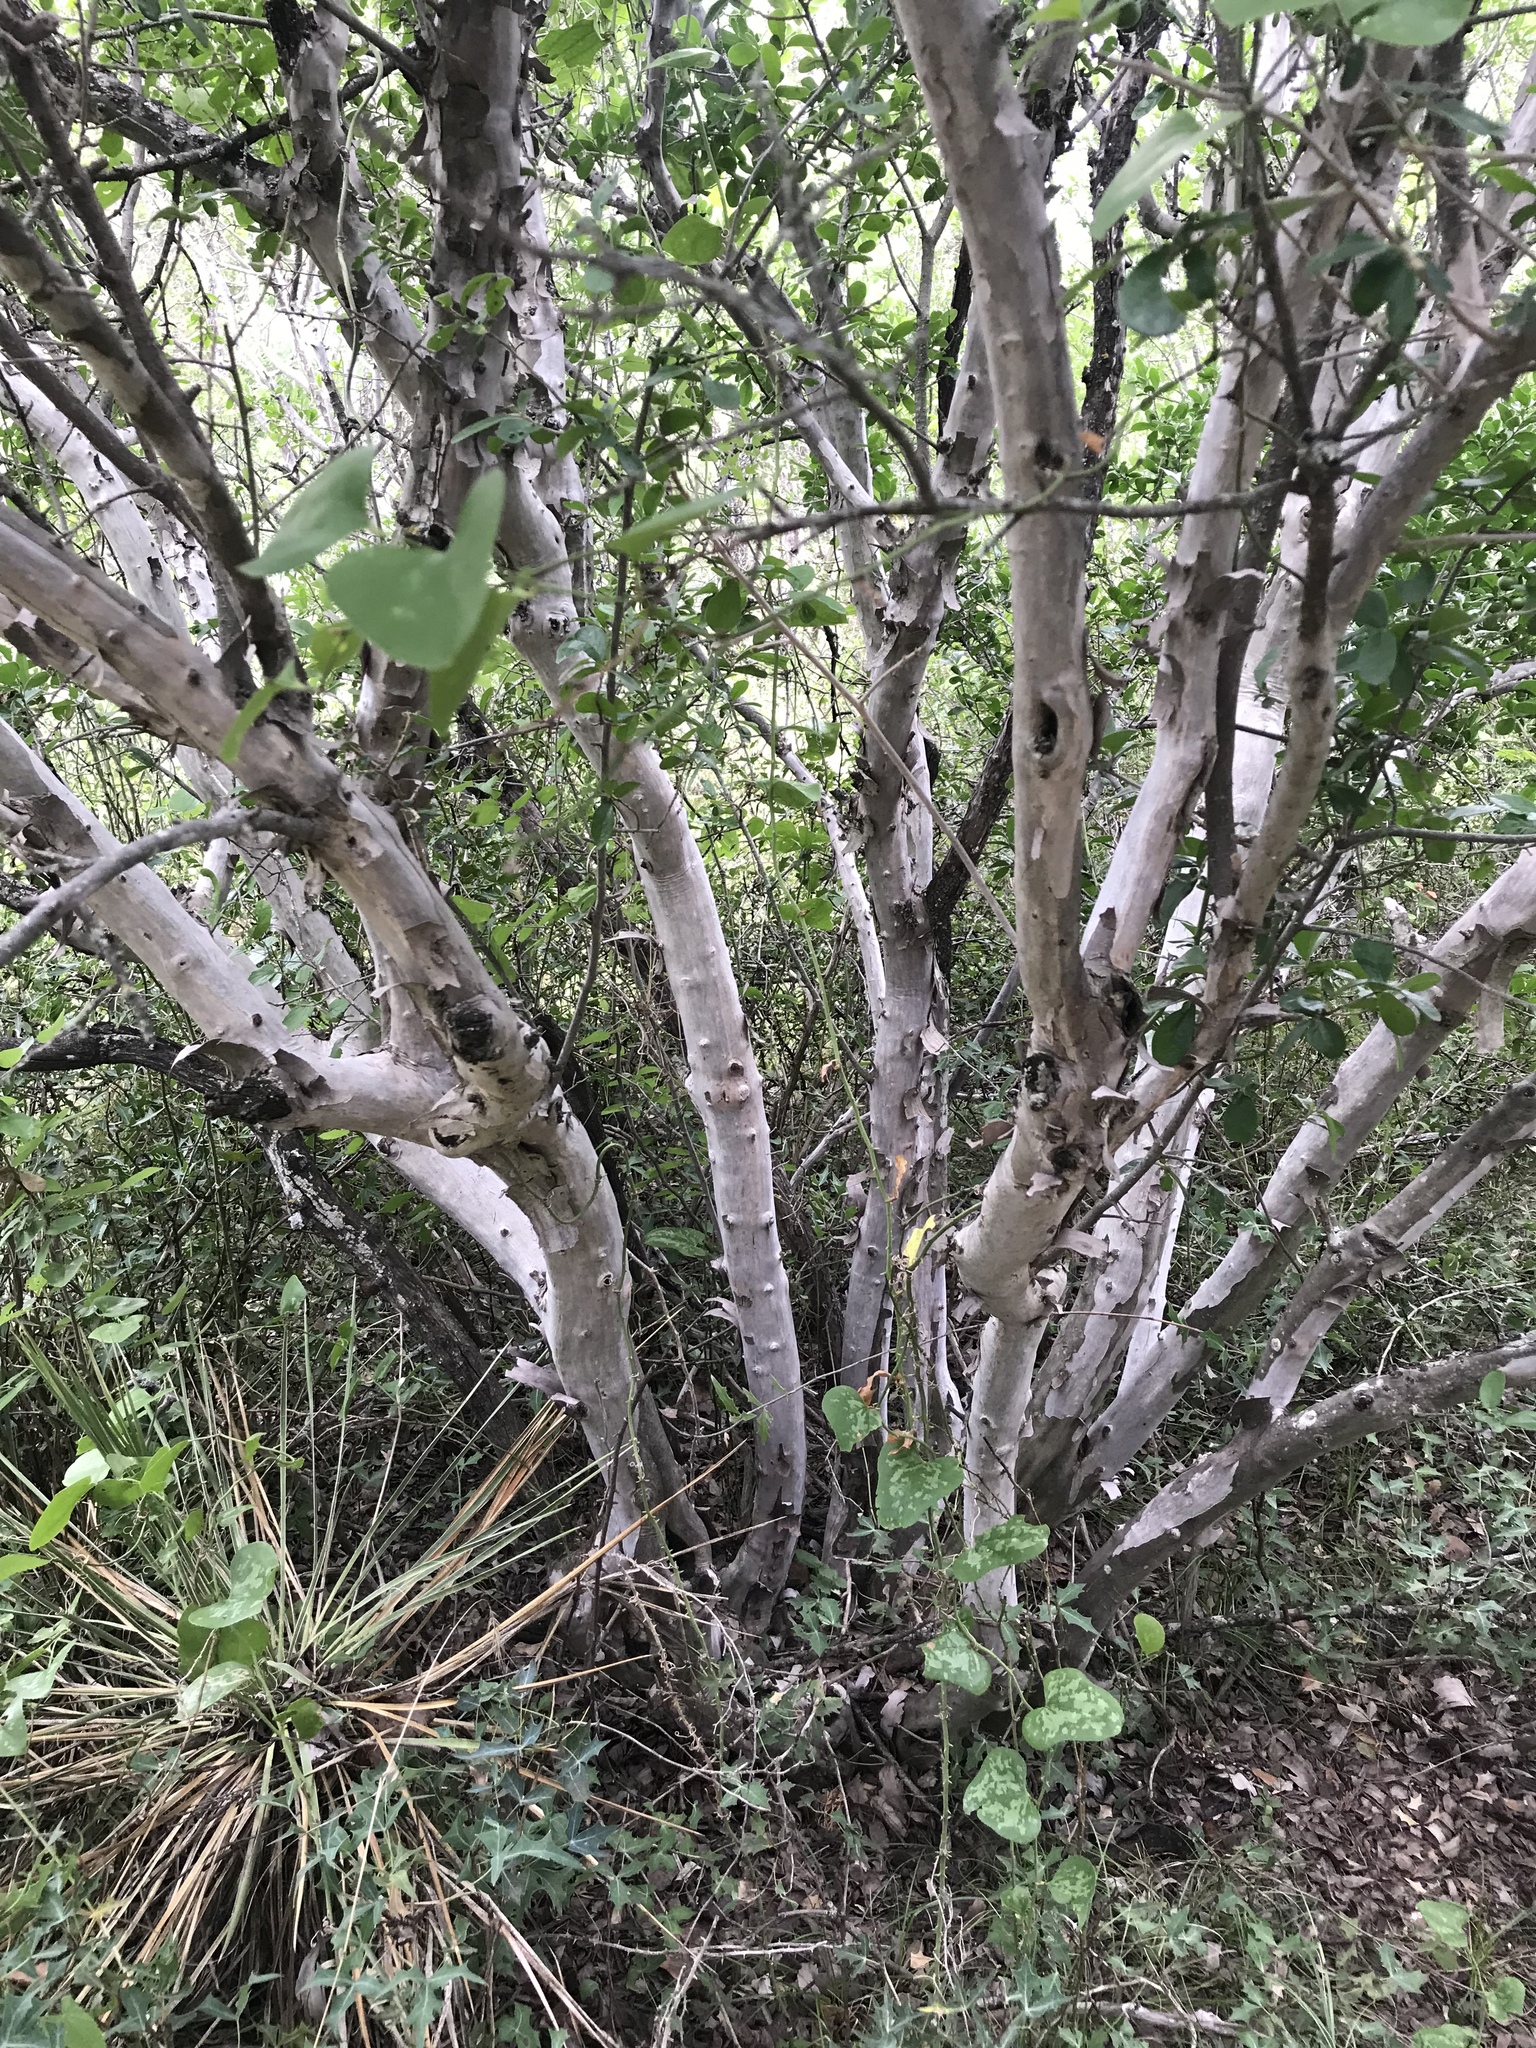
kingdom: Plantae
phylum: Tracheophyta
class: Magnoliopsida
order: Ericales
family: Ebenaceae
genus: Diospyros
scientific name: Diospyros texana
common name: Texas persimmon
